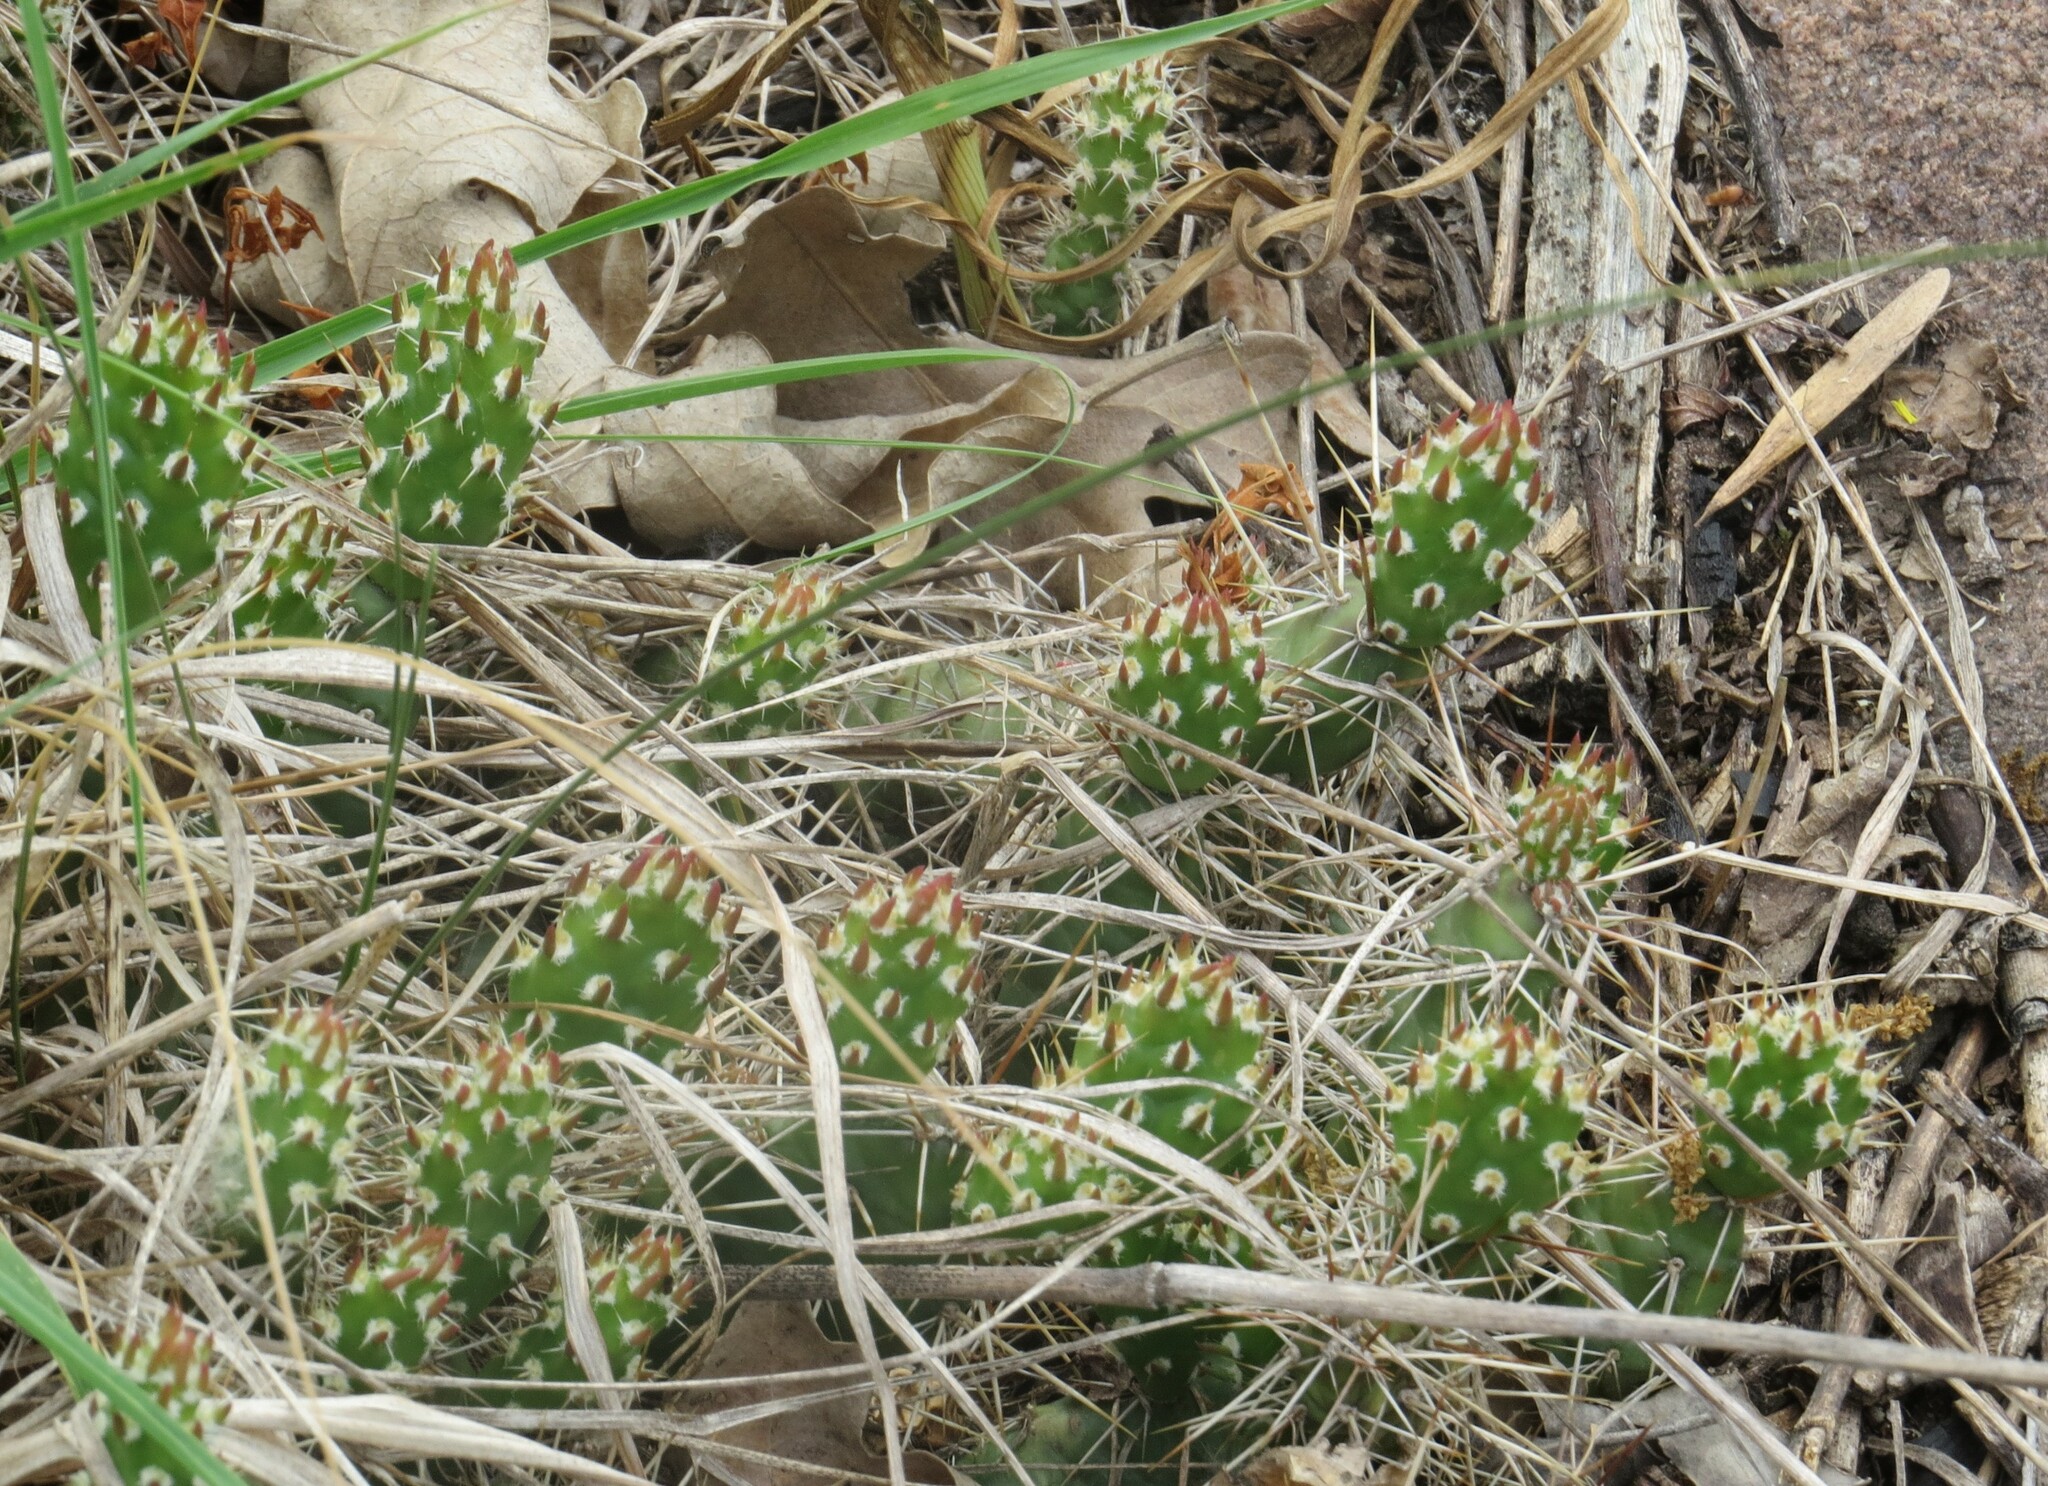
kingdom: Plantae
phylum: Tracheophyta
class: Magnoliopsida
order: Caryophyllales
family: Cactaceae
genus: Opuntia
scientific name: Opuntia fragilis
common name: Brittle cactus
